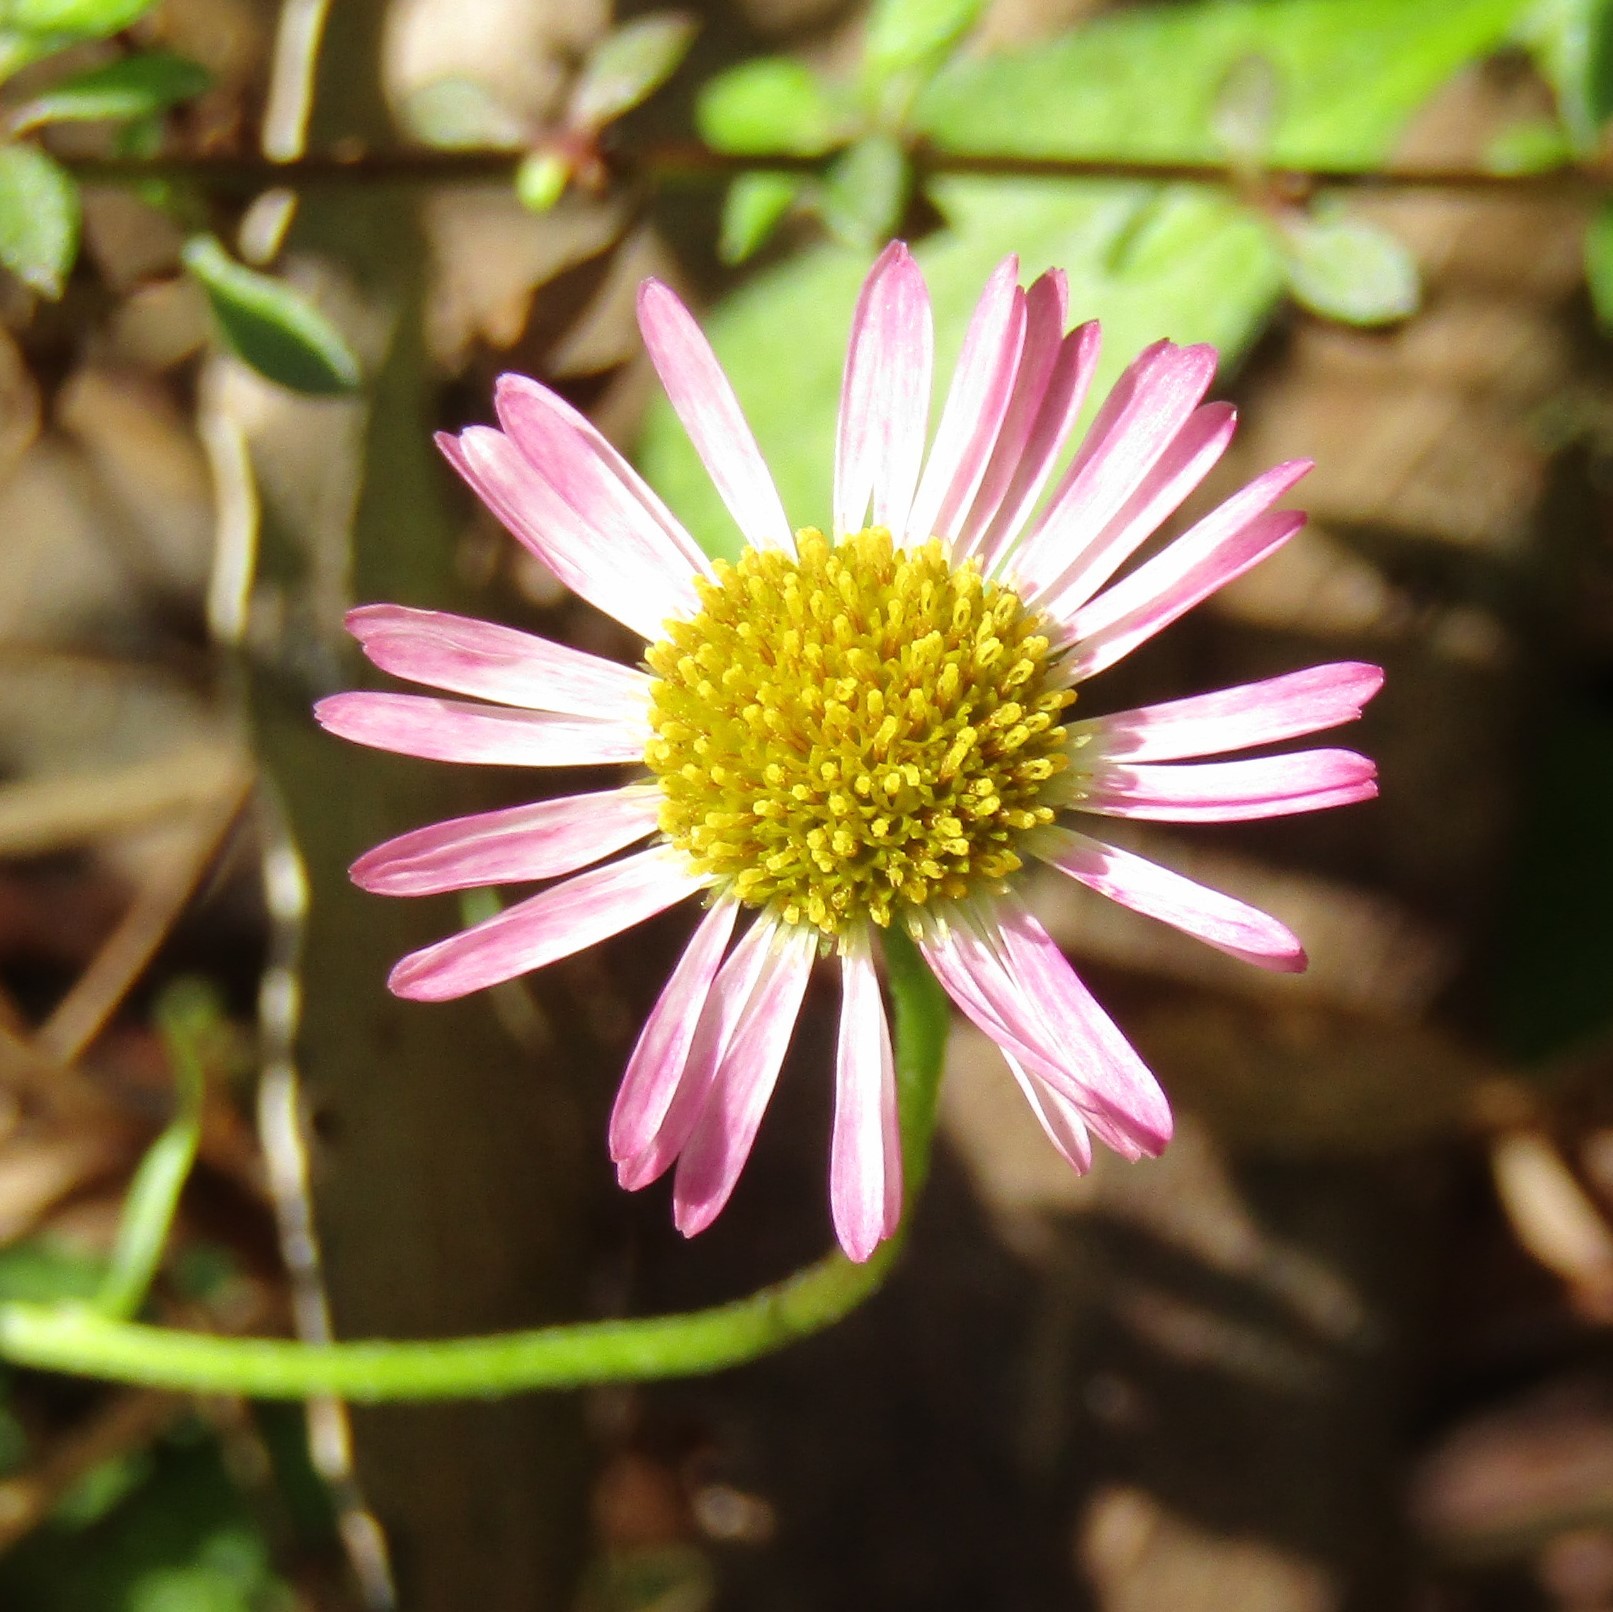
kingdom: Plantae
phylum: Tracheophyta
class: Magnoliopsida
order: Asterales
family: Asteraceae
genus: Erigeron
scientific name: Erigeron karvinskianus
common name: Mexican fleabane
